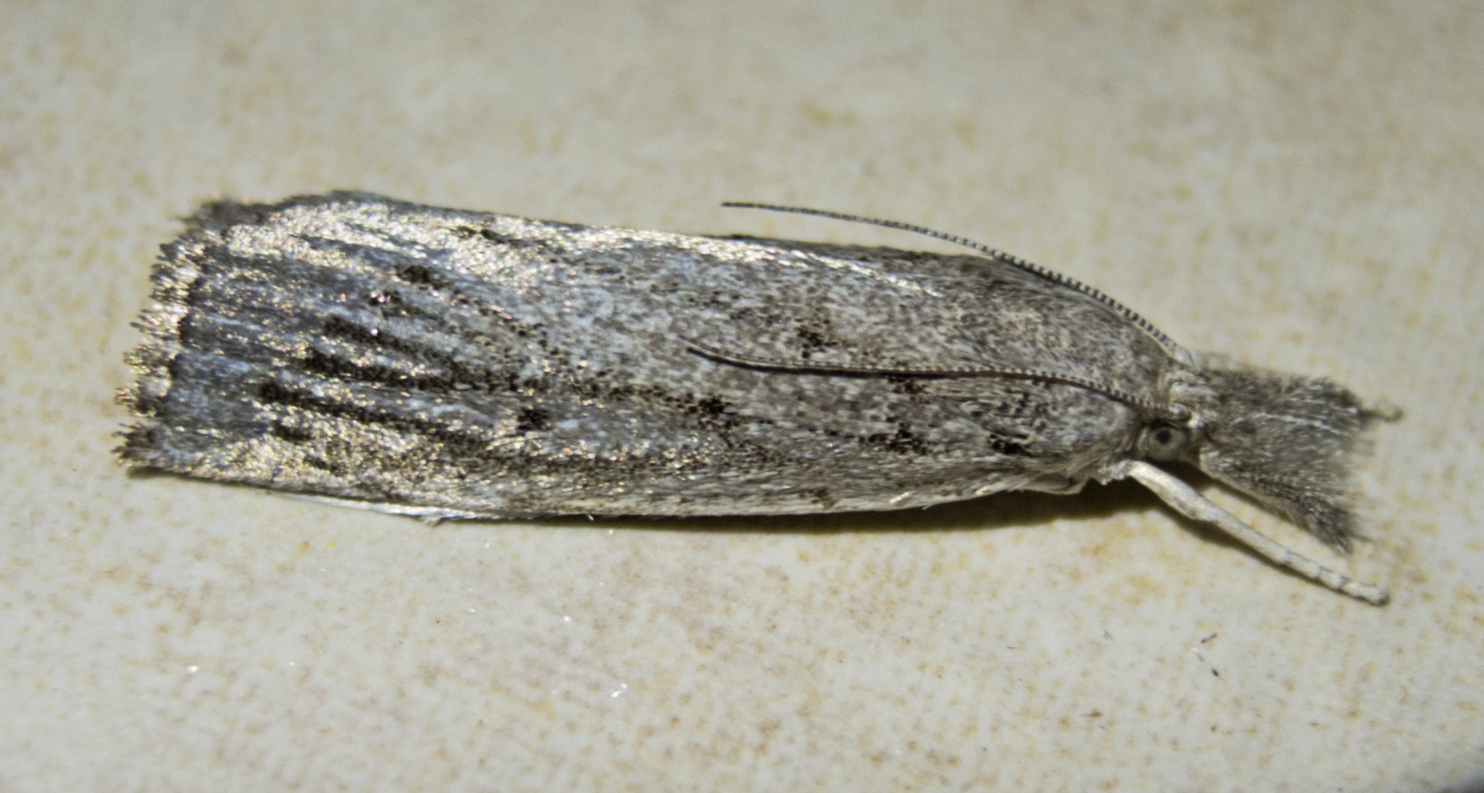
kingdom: Animalia
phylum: Arthropoda
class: Insecta
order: Lepidoptera
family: Crambidae
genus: Calamotropha
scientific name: Calamotropha paludella
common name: Bulrush veneer
